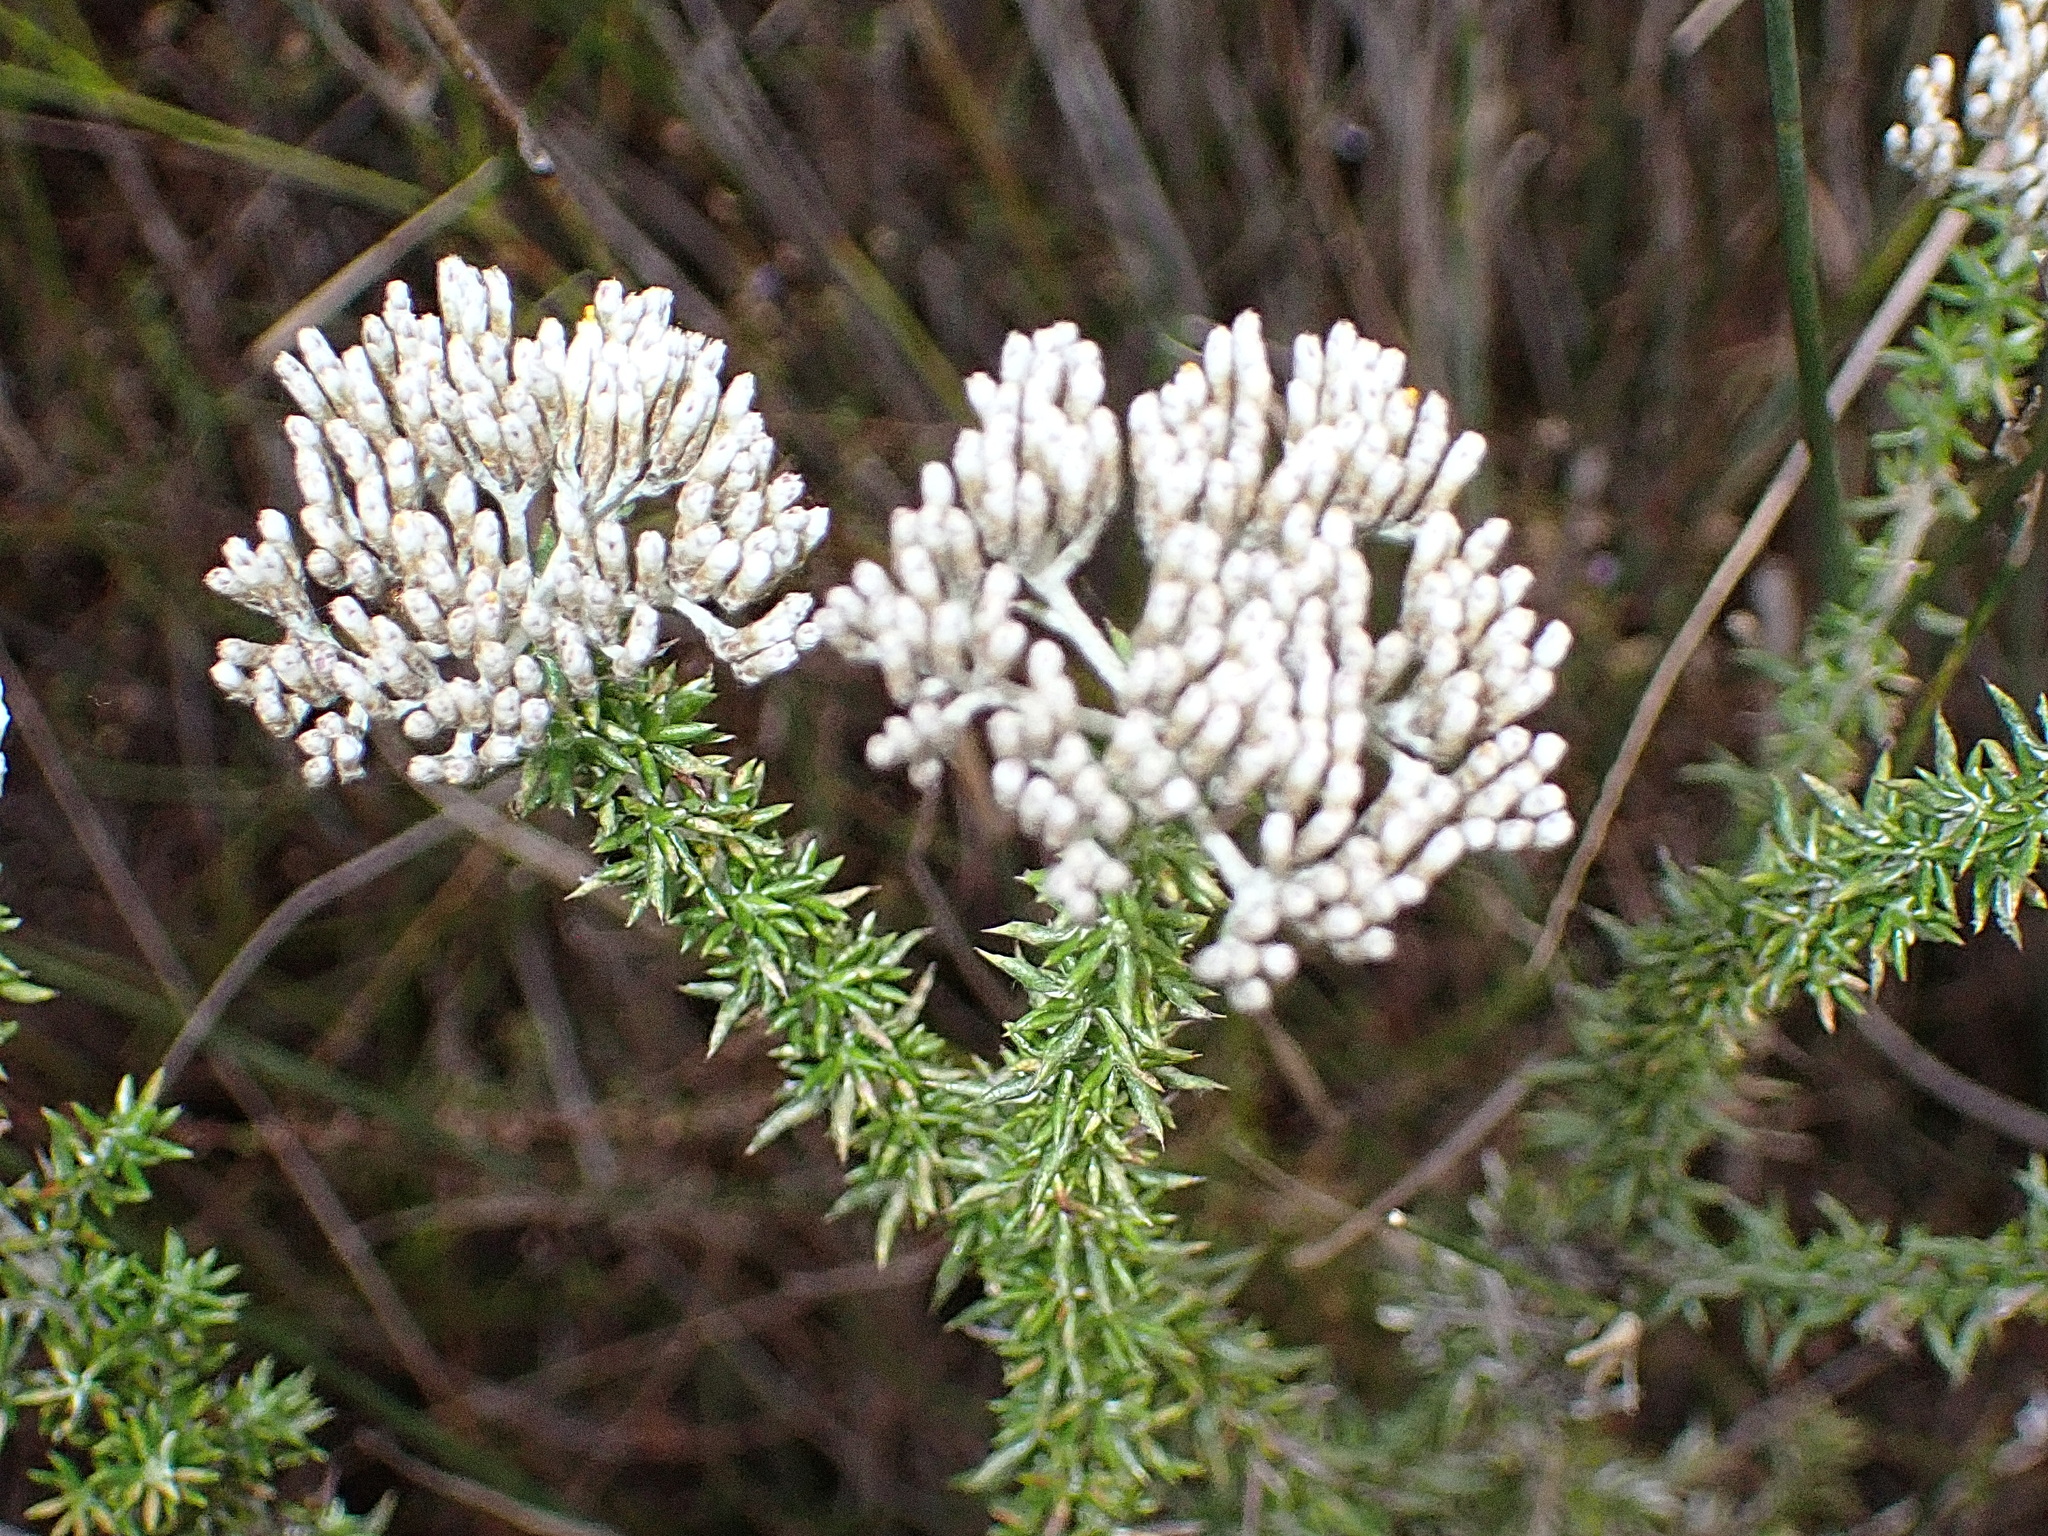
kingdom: Plantae
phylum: Tracheophyta
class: Magnoliopsida
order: Asterales
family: Asteraceae
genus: Metalasia
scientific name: Metalasia densa
